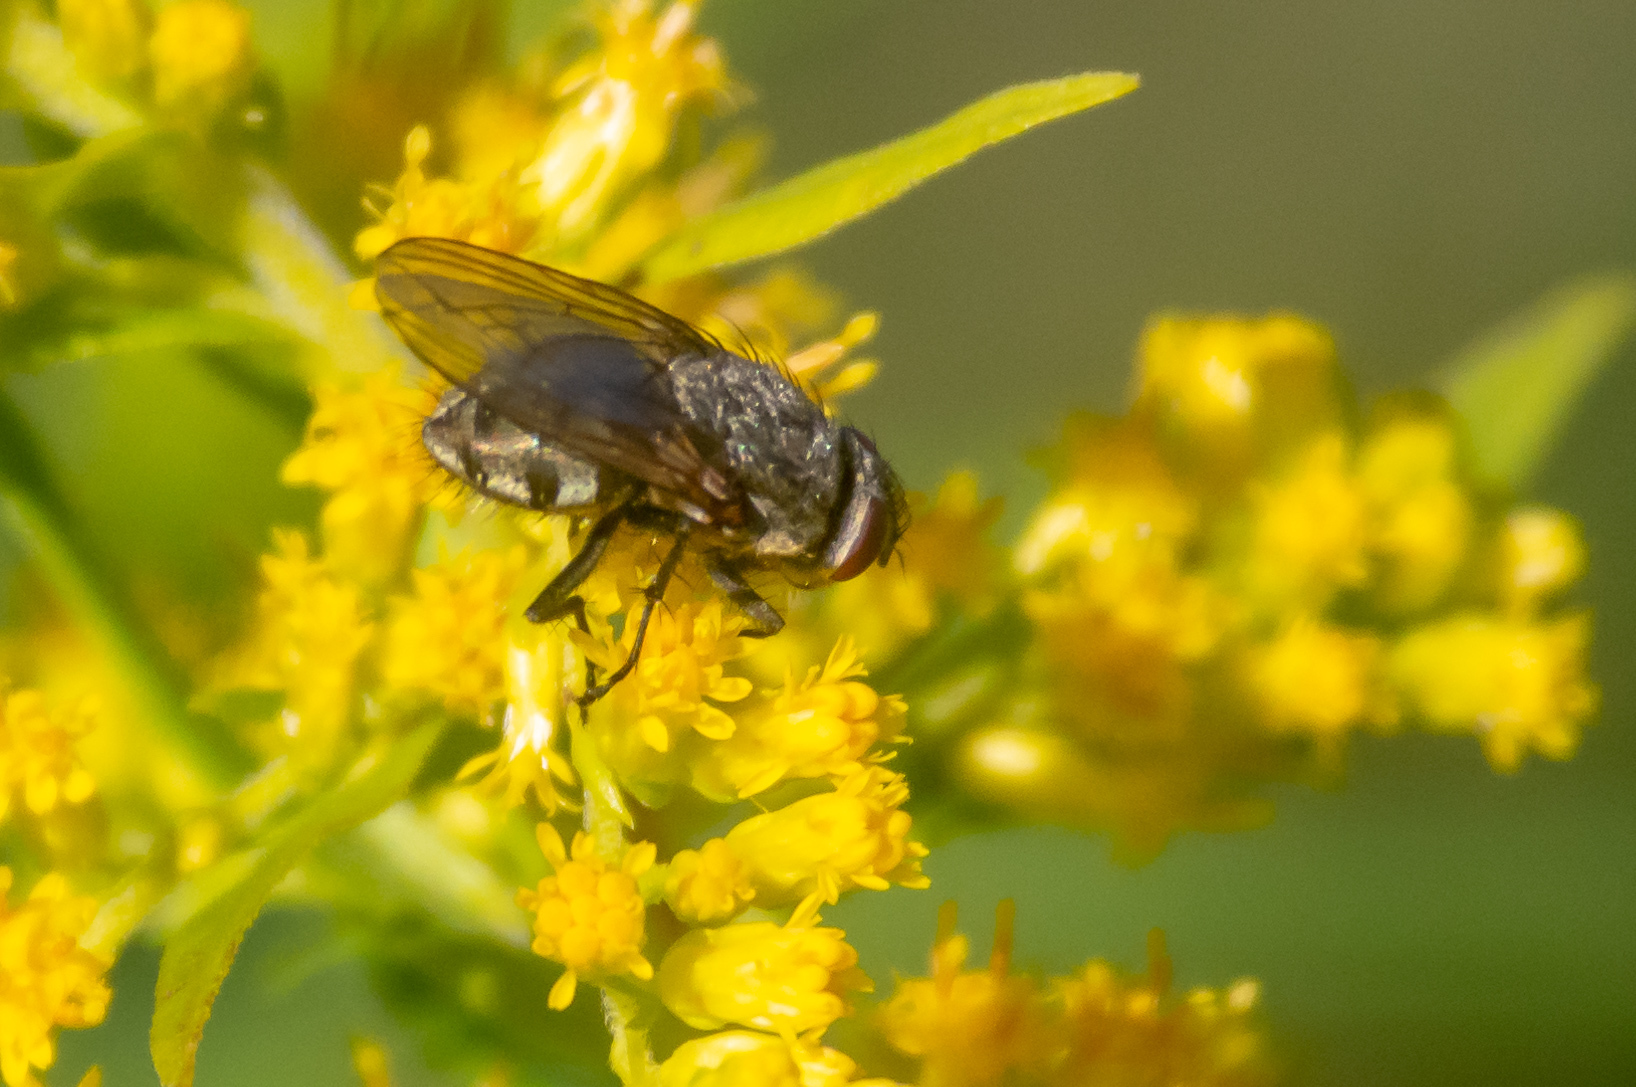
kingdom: Animalia
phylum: Arthropoda
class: Insecta
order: Diptera
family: Polleniidae
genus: Pollenia
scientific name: Pollenia
